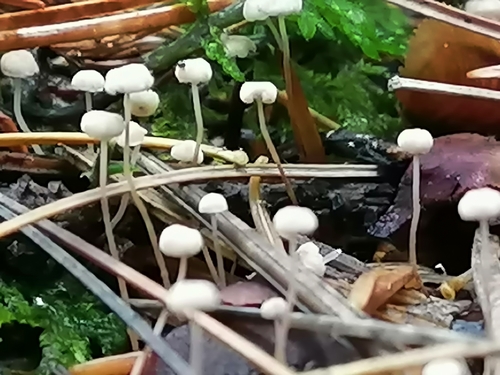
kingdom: Fungi
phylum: Basidiomycota
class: Agaricomycetes
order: Agaricales
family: Marasmiaceae
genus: Marasmius
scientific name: Marasmius epiphyllus
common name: Leaf parachute
